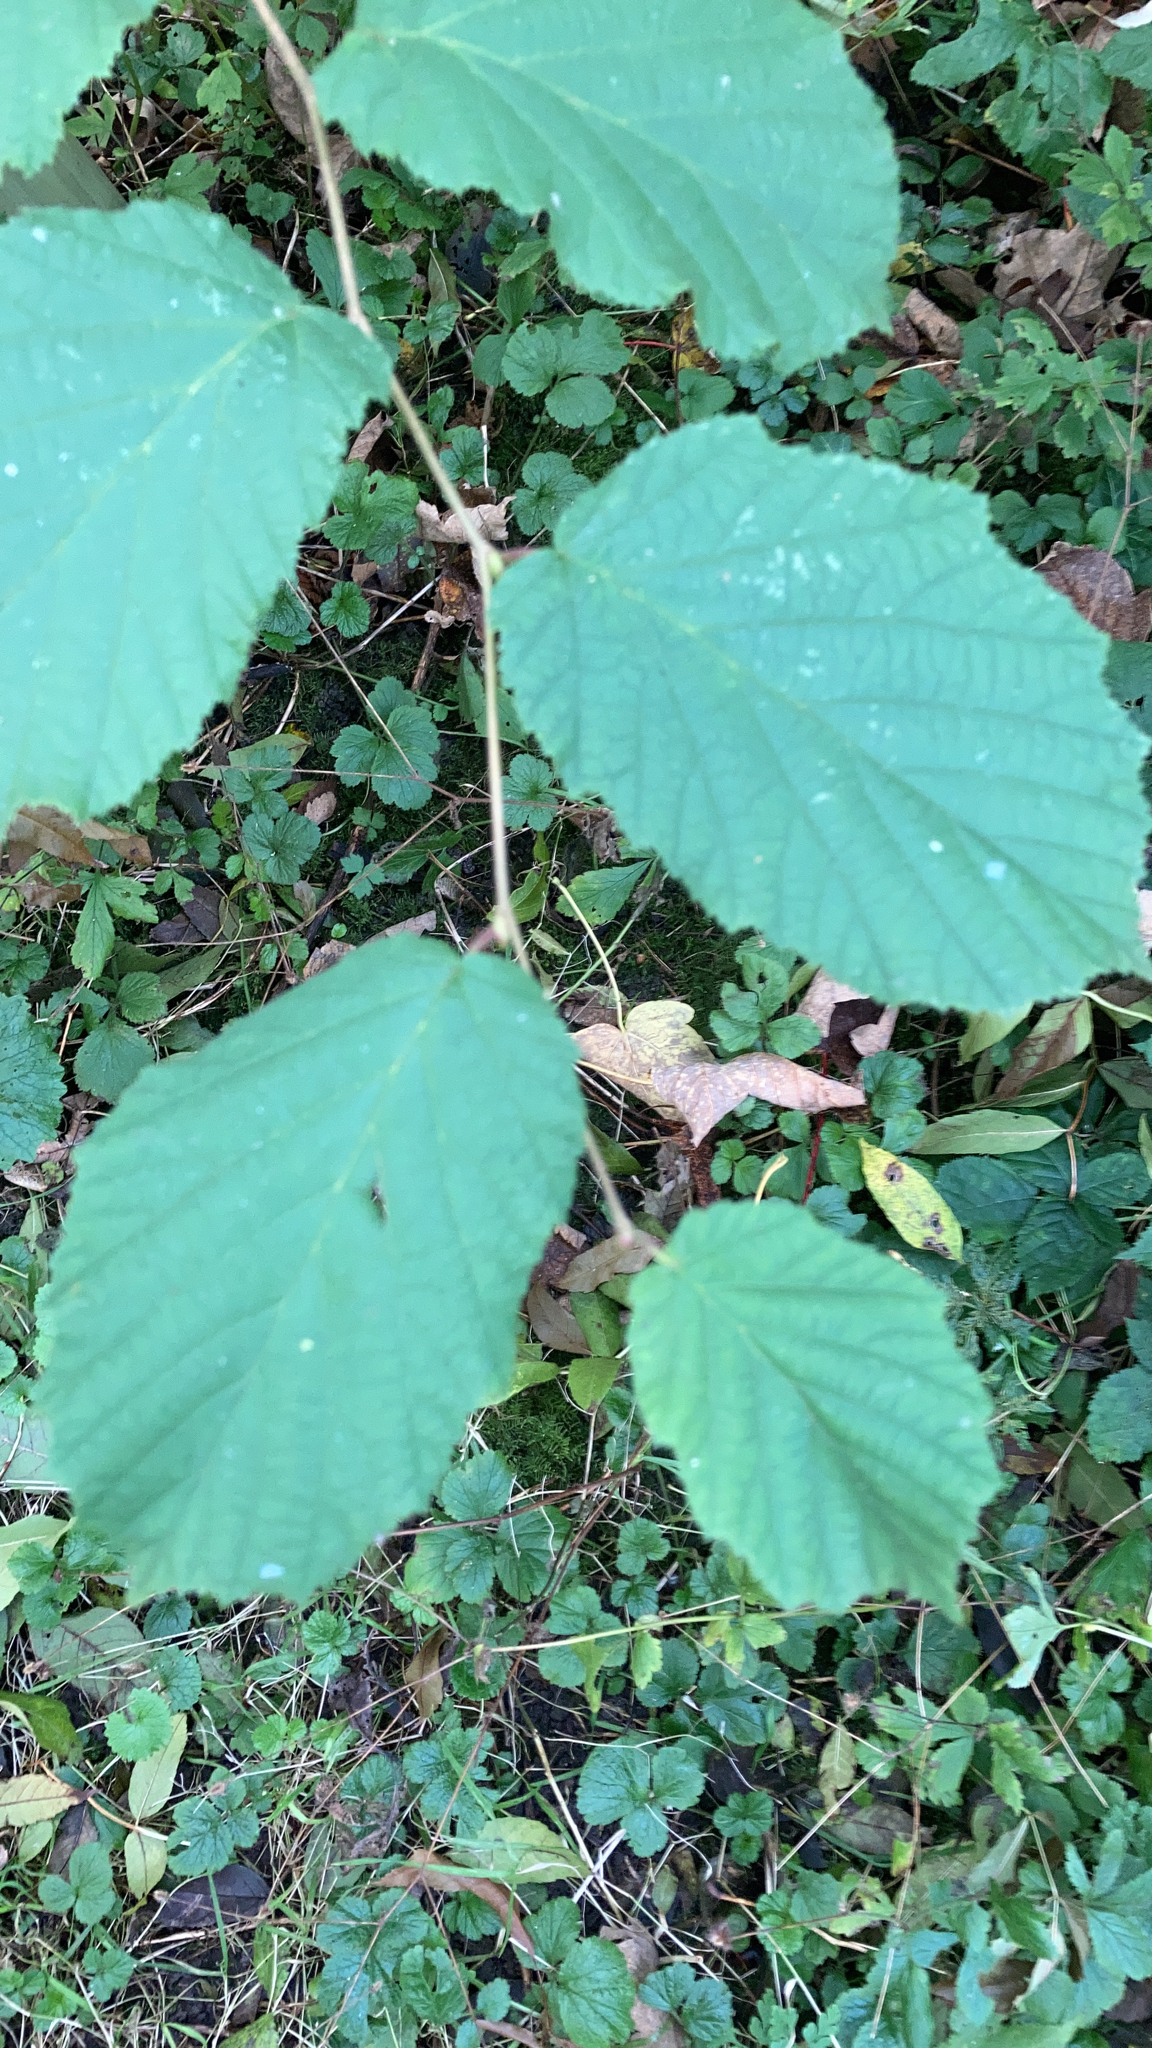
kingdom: Plantae
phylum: Tracheophyta
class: Magnoliopsida
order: Fagales
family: Betulaceae
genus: Corylus
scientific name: Corylus avellana
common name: European hazel
